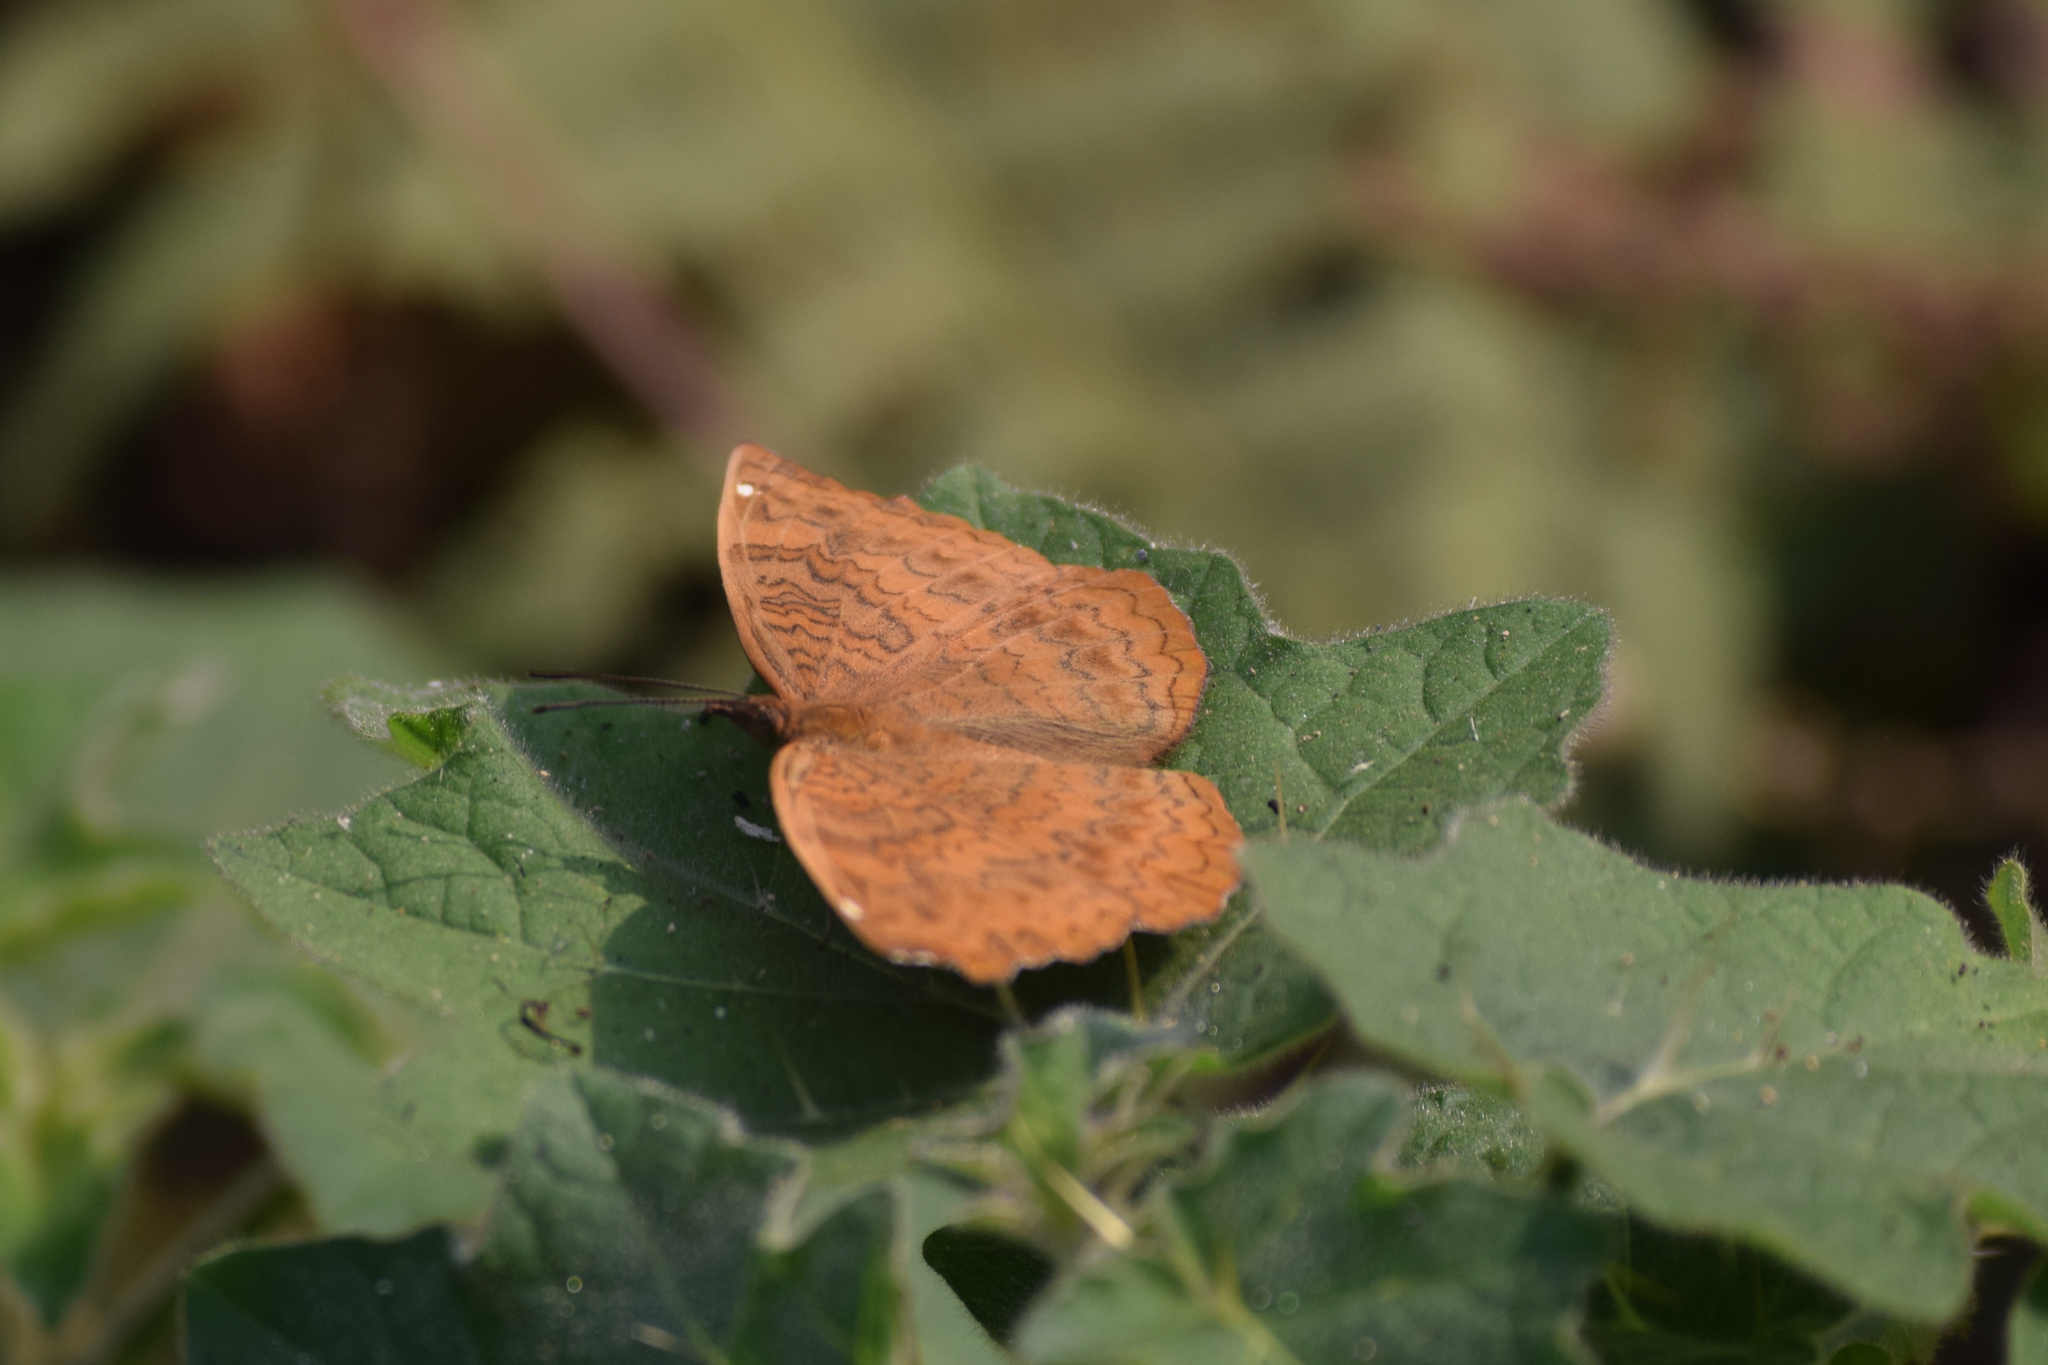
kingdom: Animalia
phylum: Arthropoda
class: Insecta
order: Lepidoptera
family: Nymphalidae
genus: Ariadne
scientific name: Ariadne ariadne
